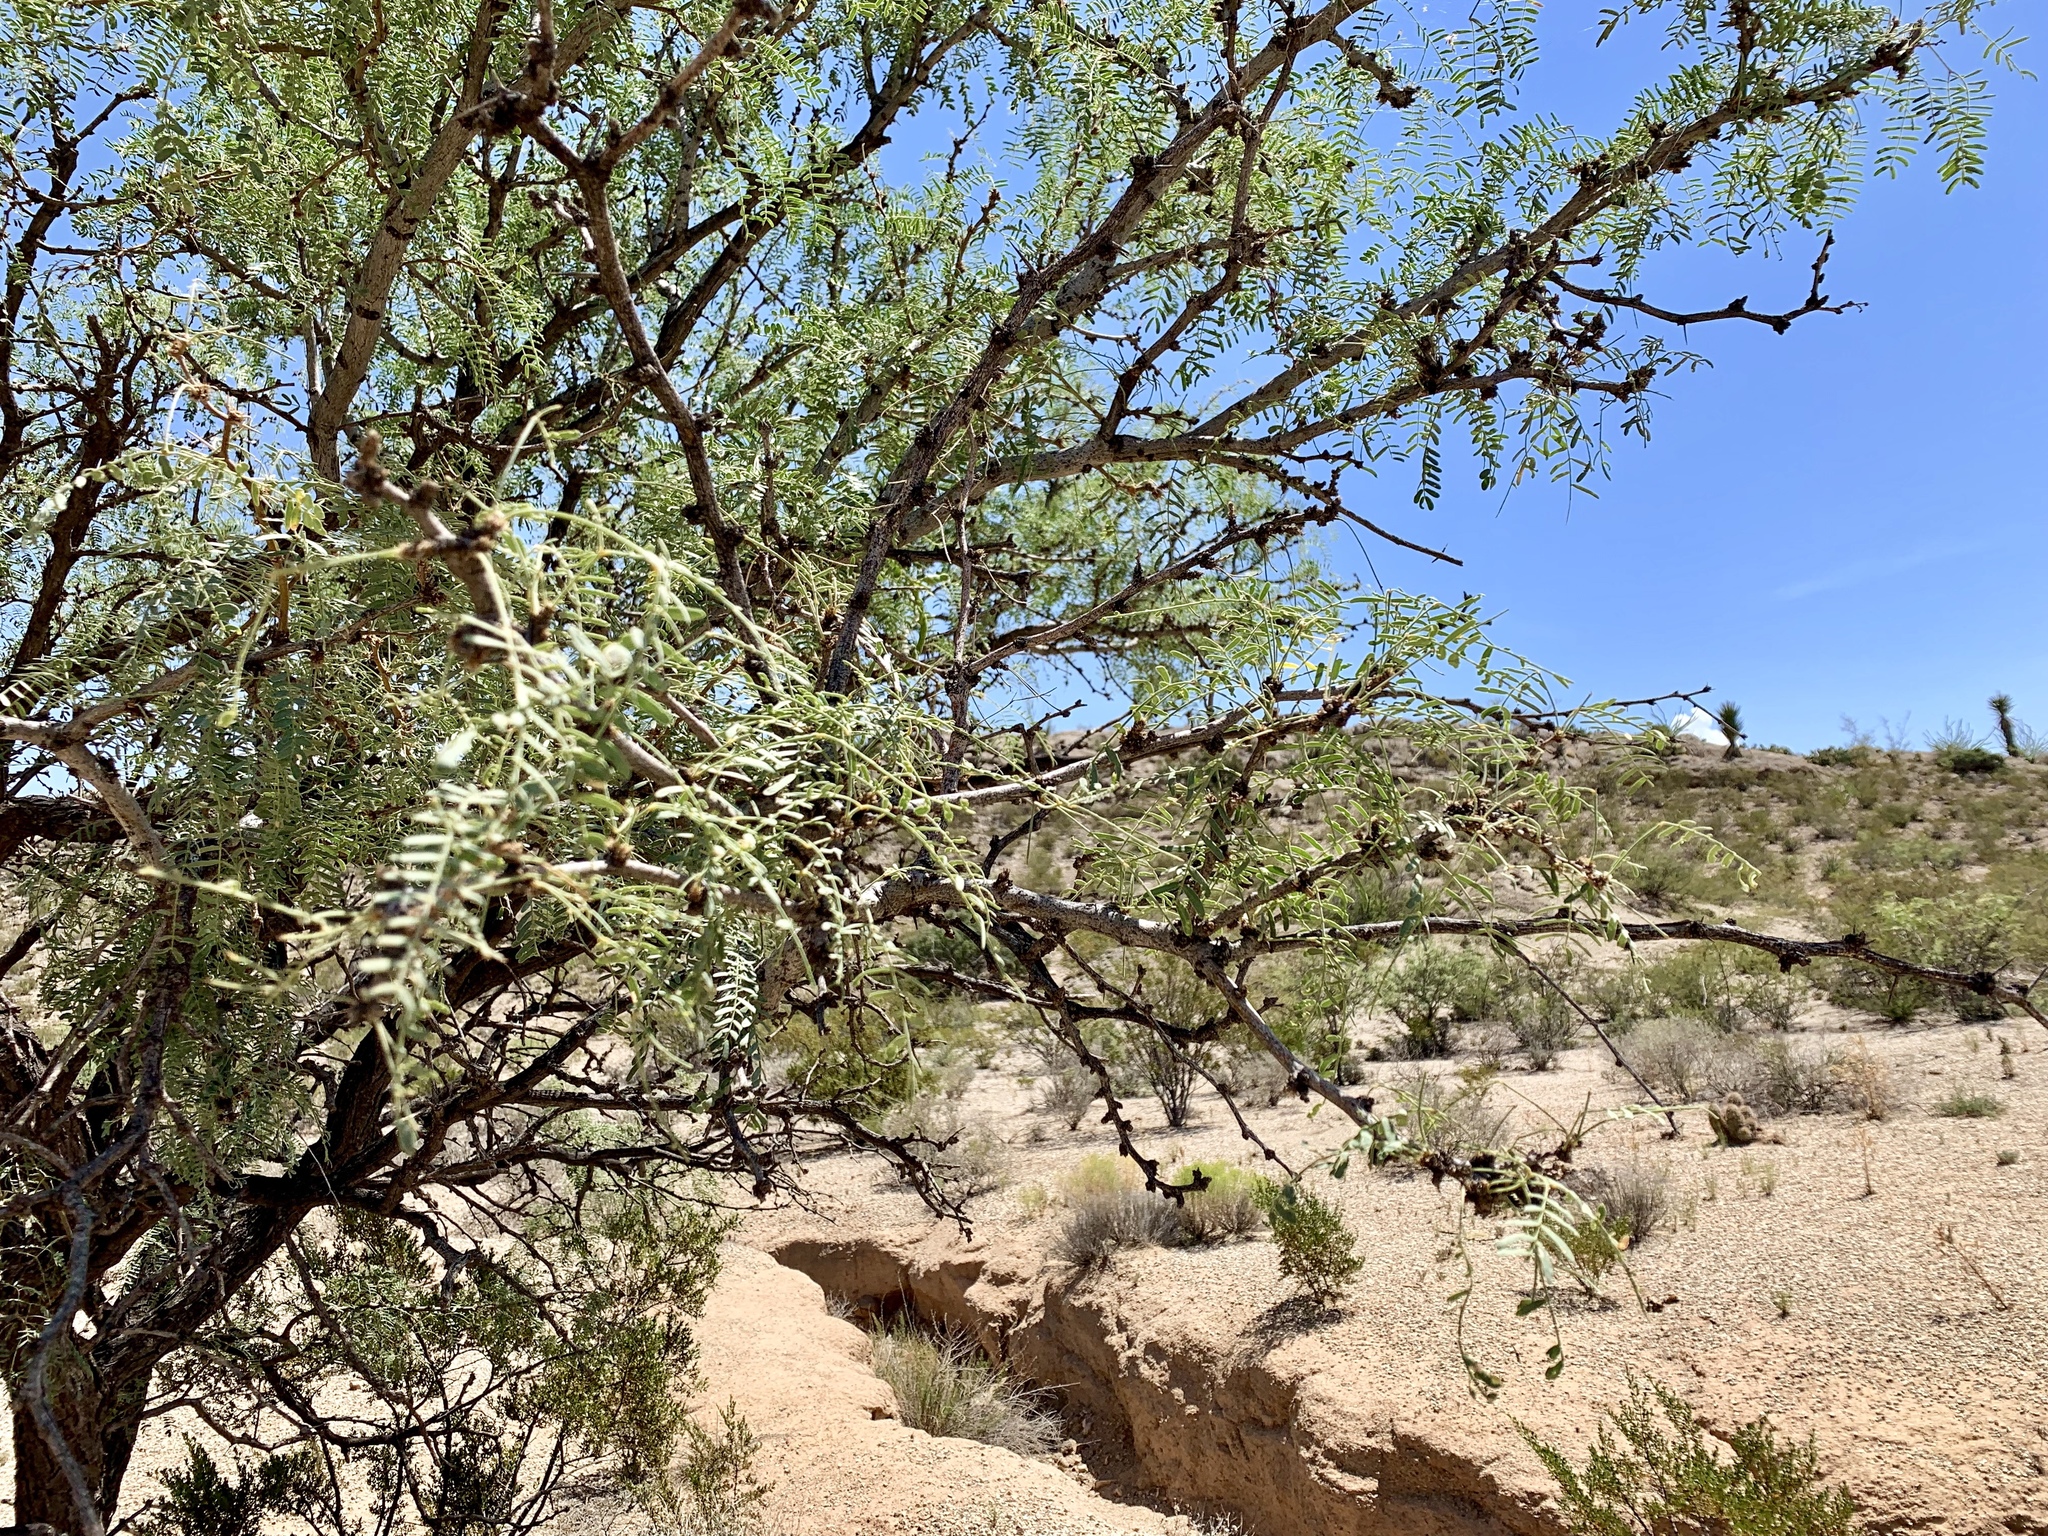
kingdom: Plantae
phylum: Tracheophyta
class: Magnoliopsida
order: Fabales
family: Fabaceae
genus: Prosopis
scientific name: Prosopis glandulosa
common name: Honey mesquite
